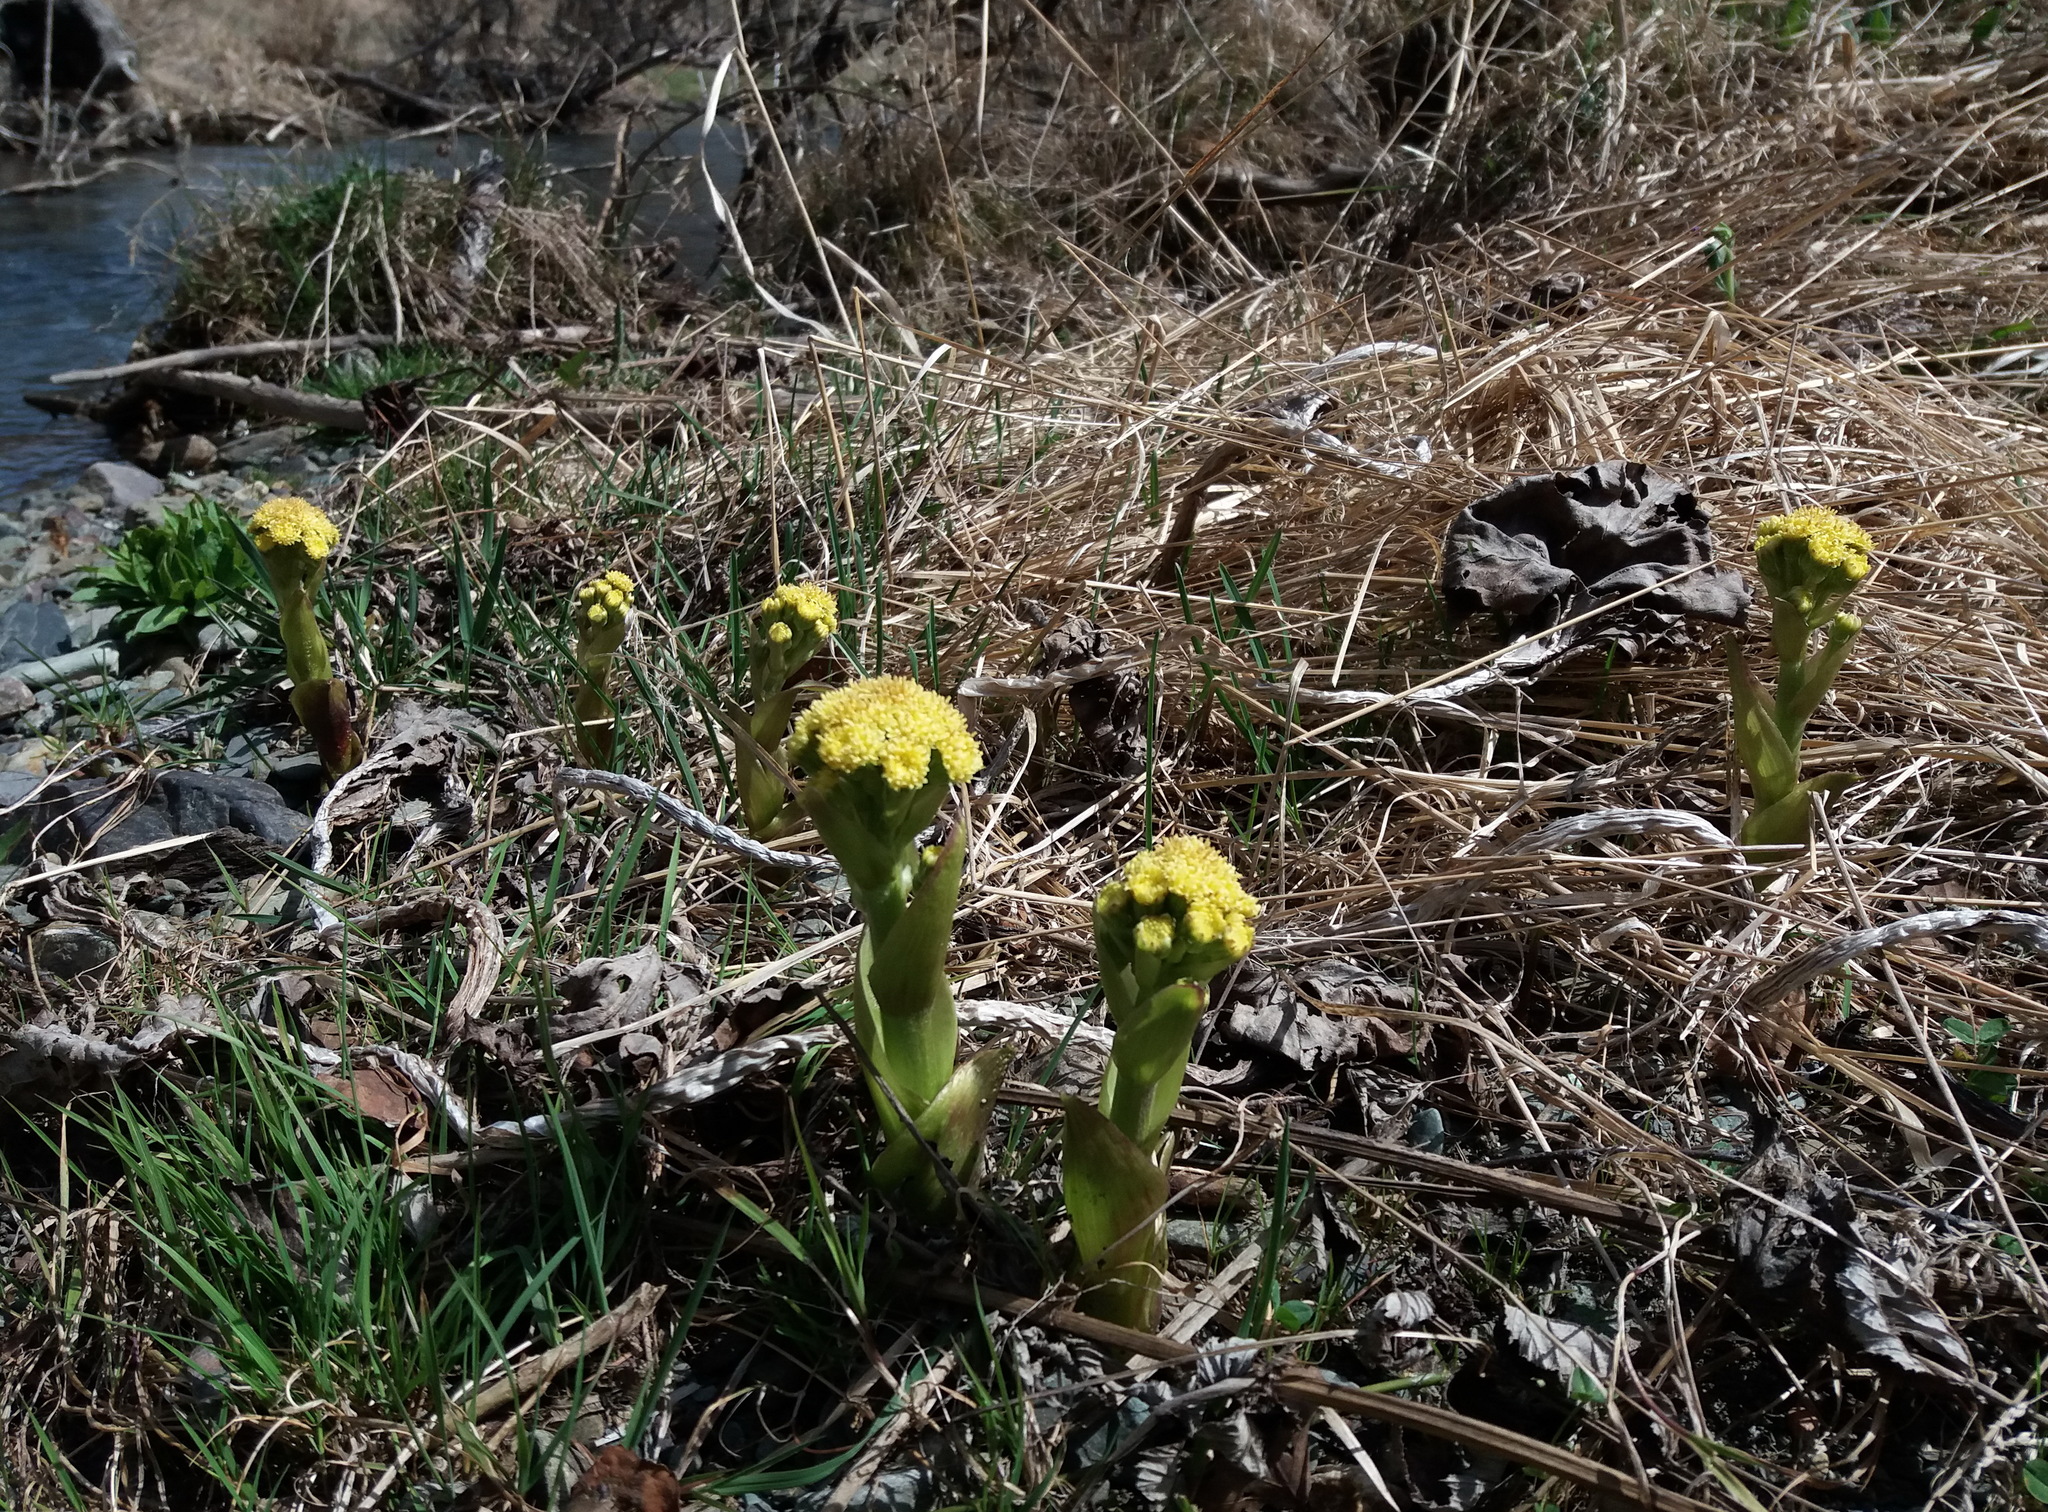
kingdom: Plantae
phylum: Tracheophyta
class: Magnoliopsida
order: Asterales
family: Asteraceae
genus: Petasites
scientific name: Petasites radiatus
